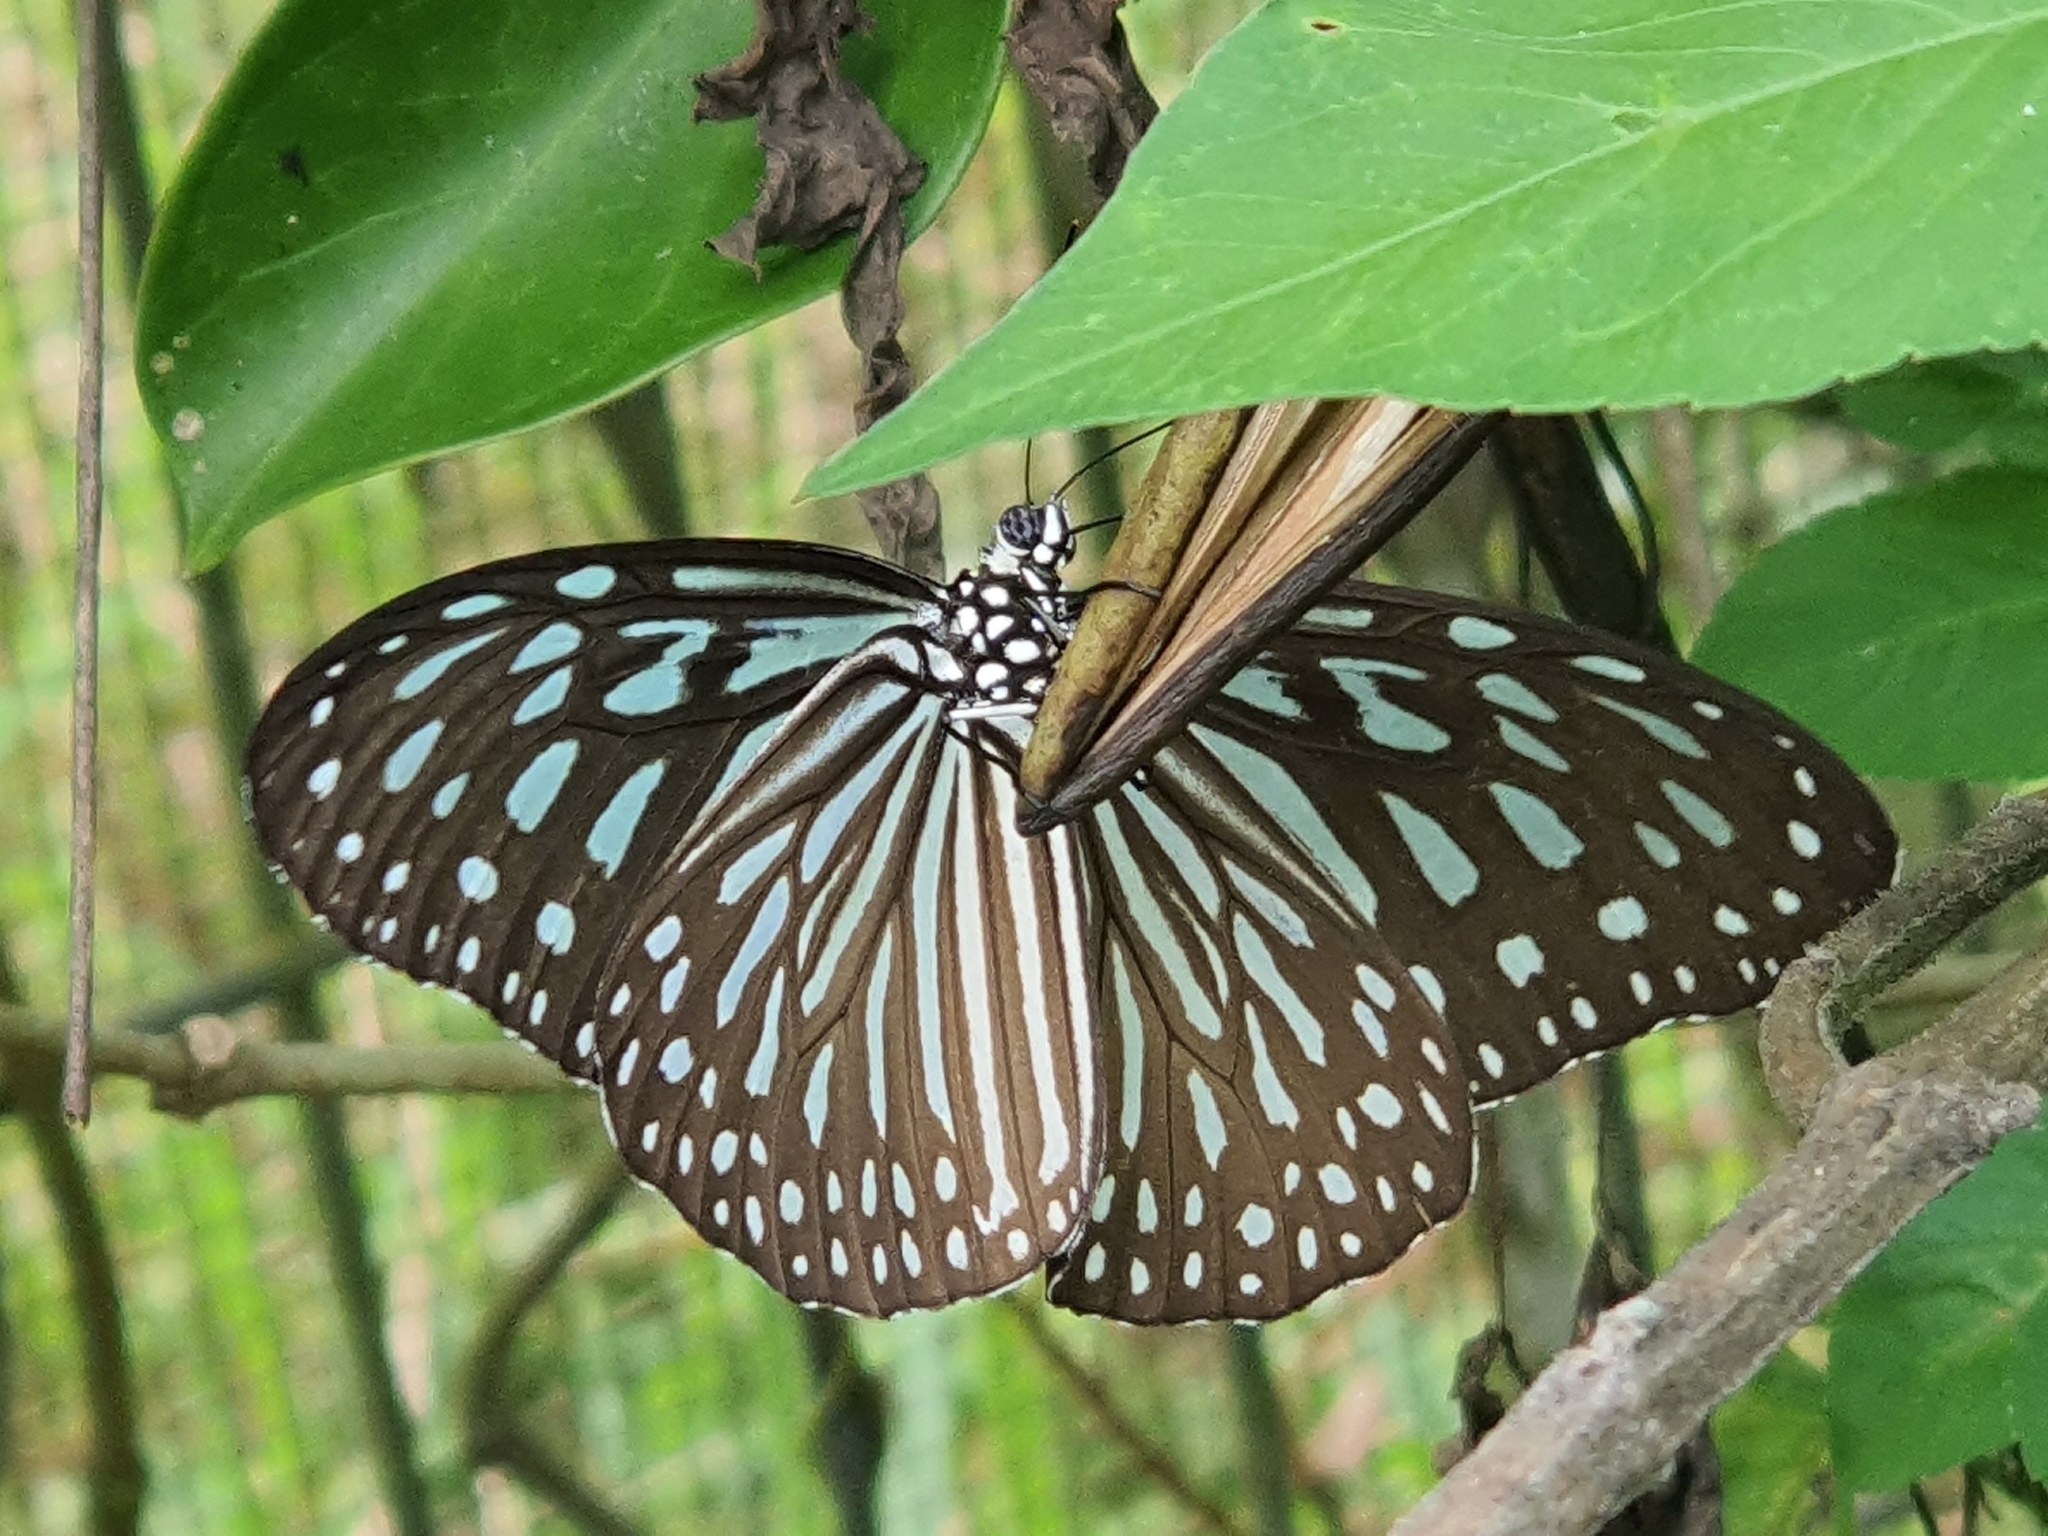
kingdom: Animalia
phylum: Arthropoda
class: Insecta
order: Lepidoptera
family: Nymphalidae
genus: Ideopsis
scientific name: Ideopsis vulgaris
